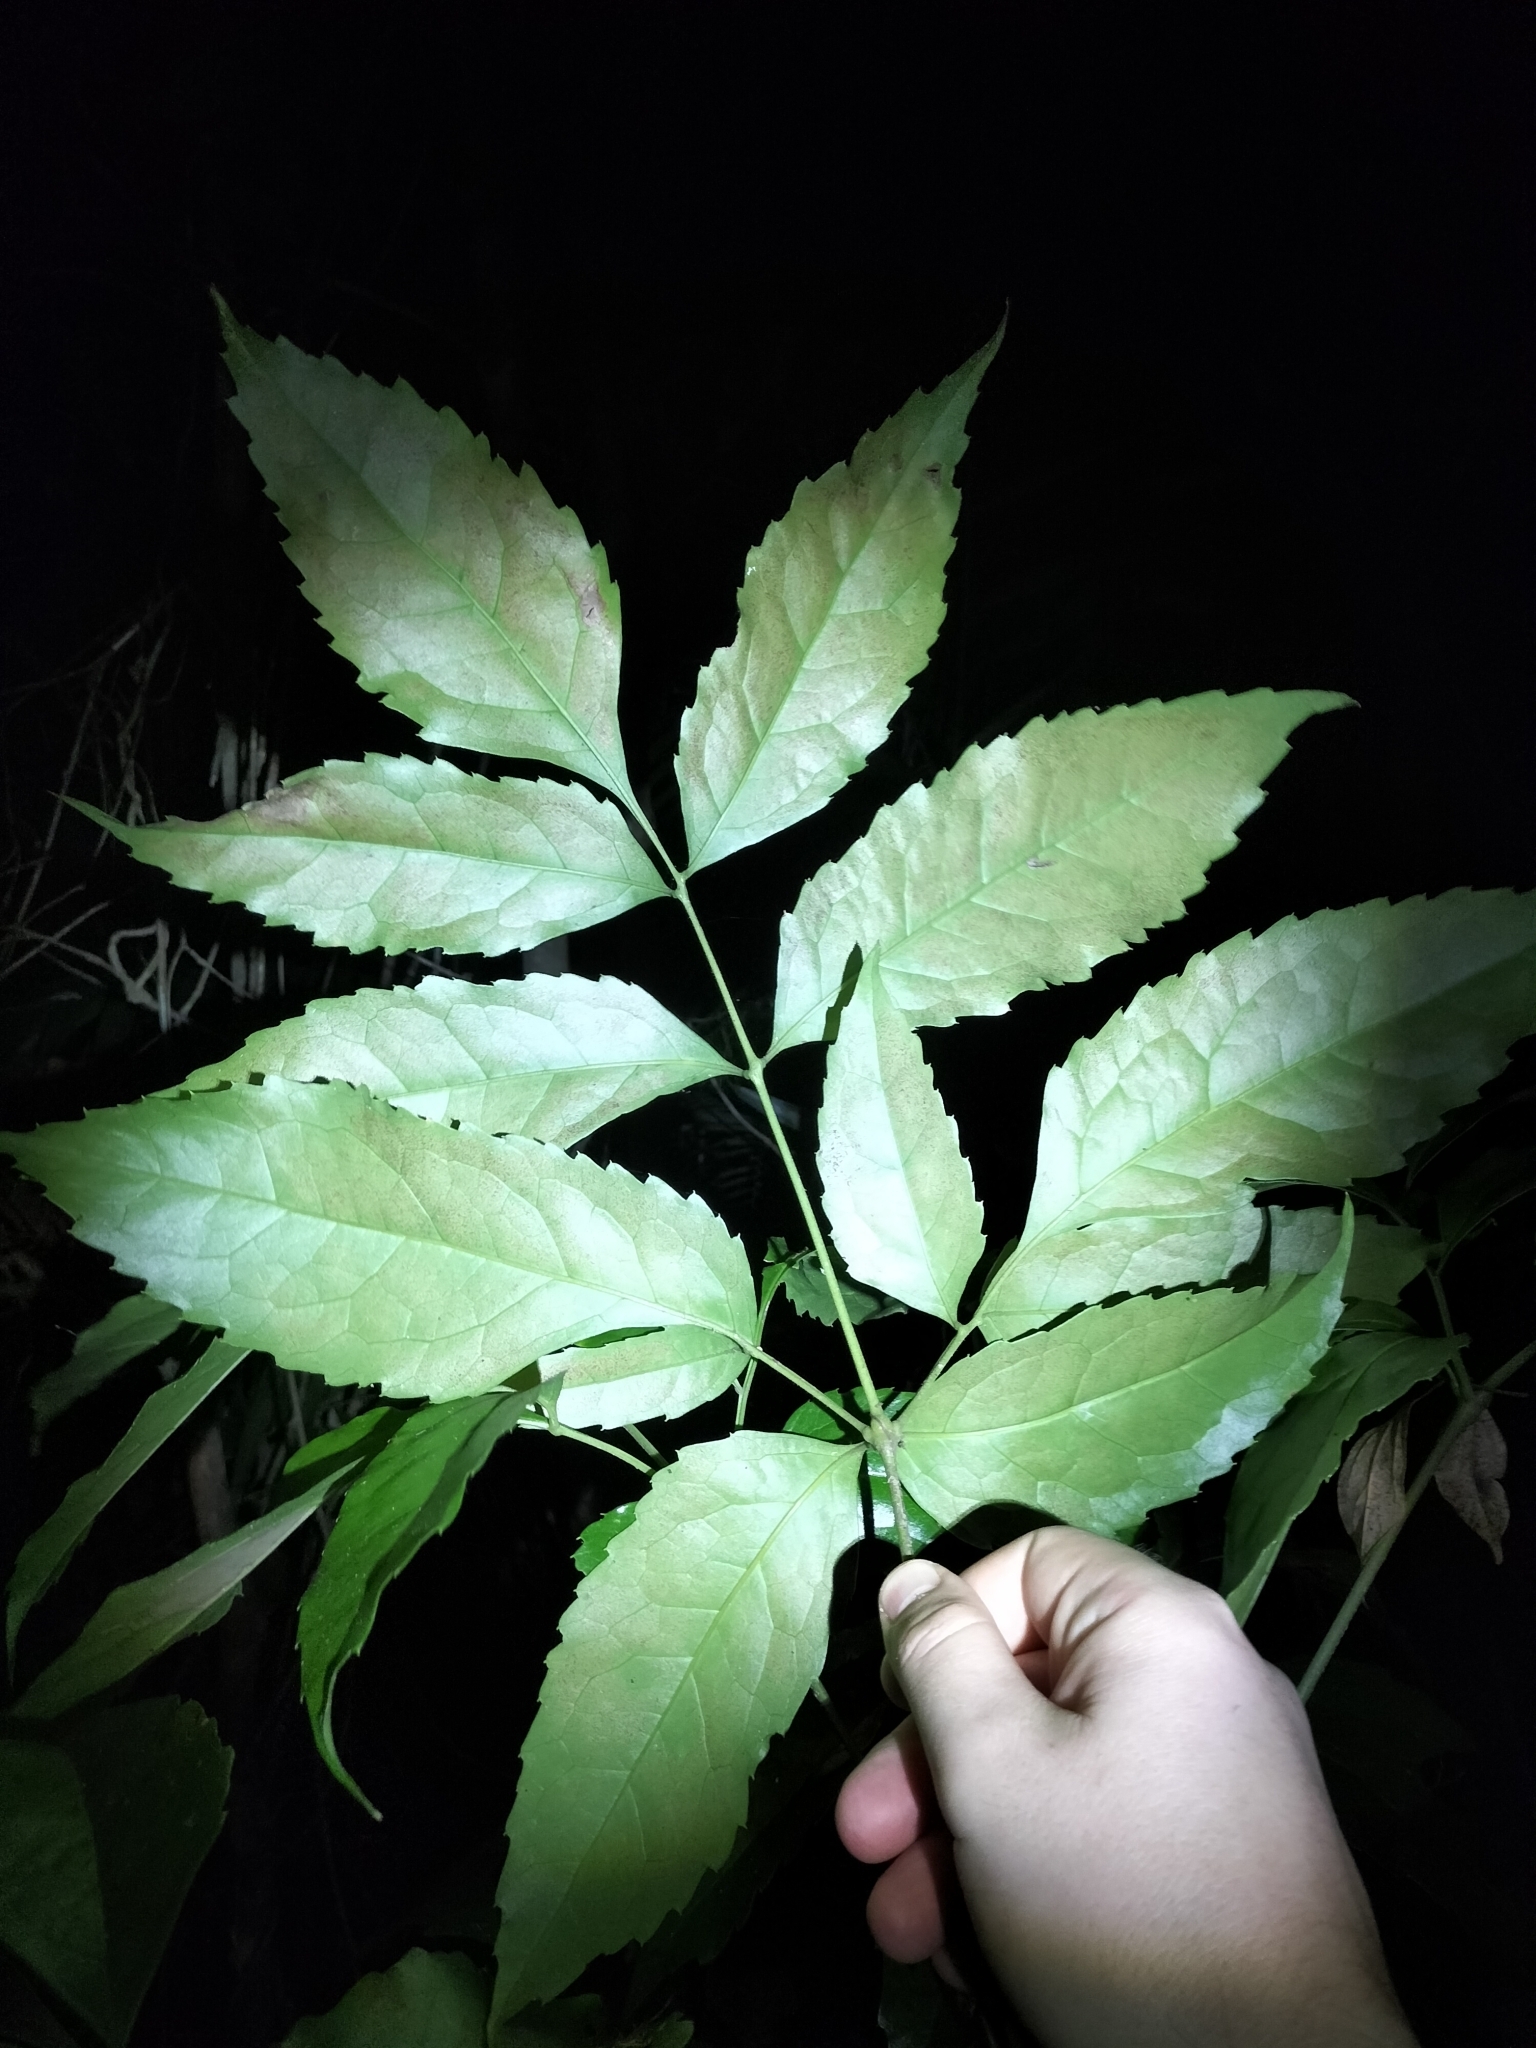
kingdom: Plantae
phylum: Tracheophyta
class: Magnoliopsida
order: Proteales
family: Proteaceae
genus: Carnarvonia
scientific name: Carnarvonia araliifolia
